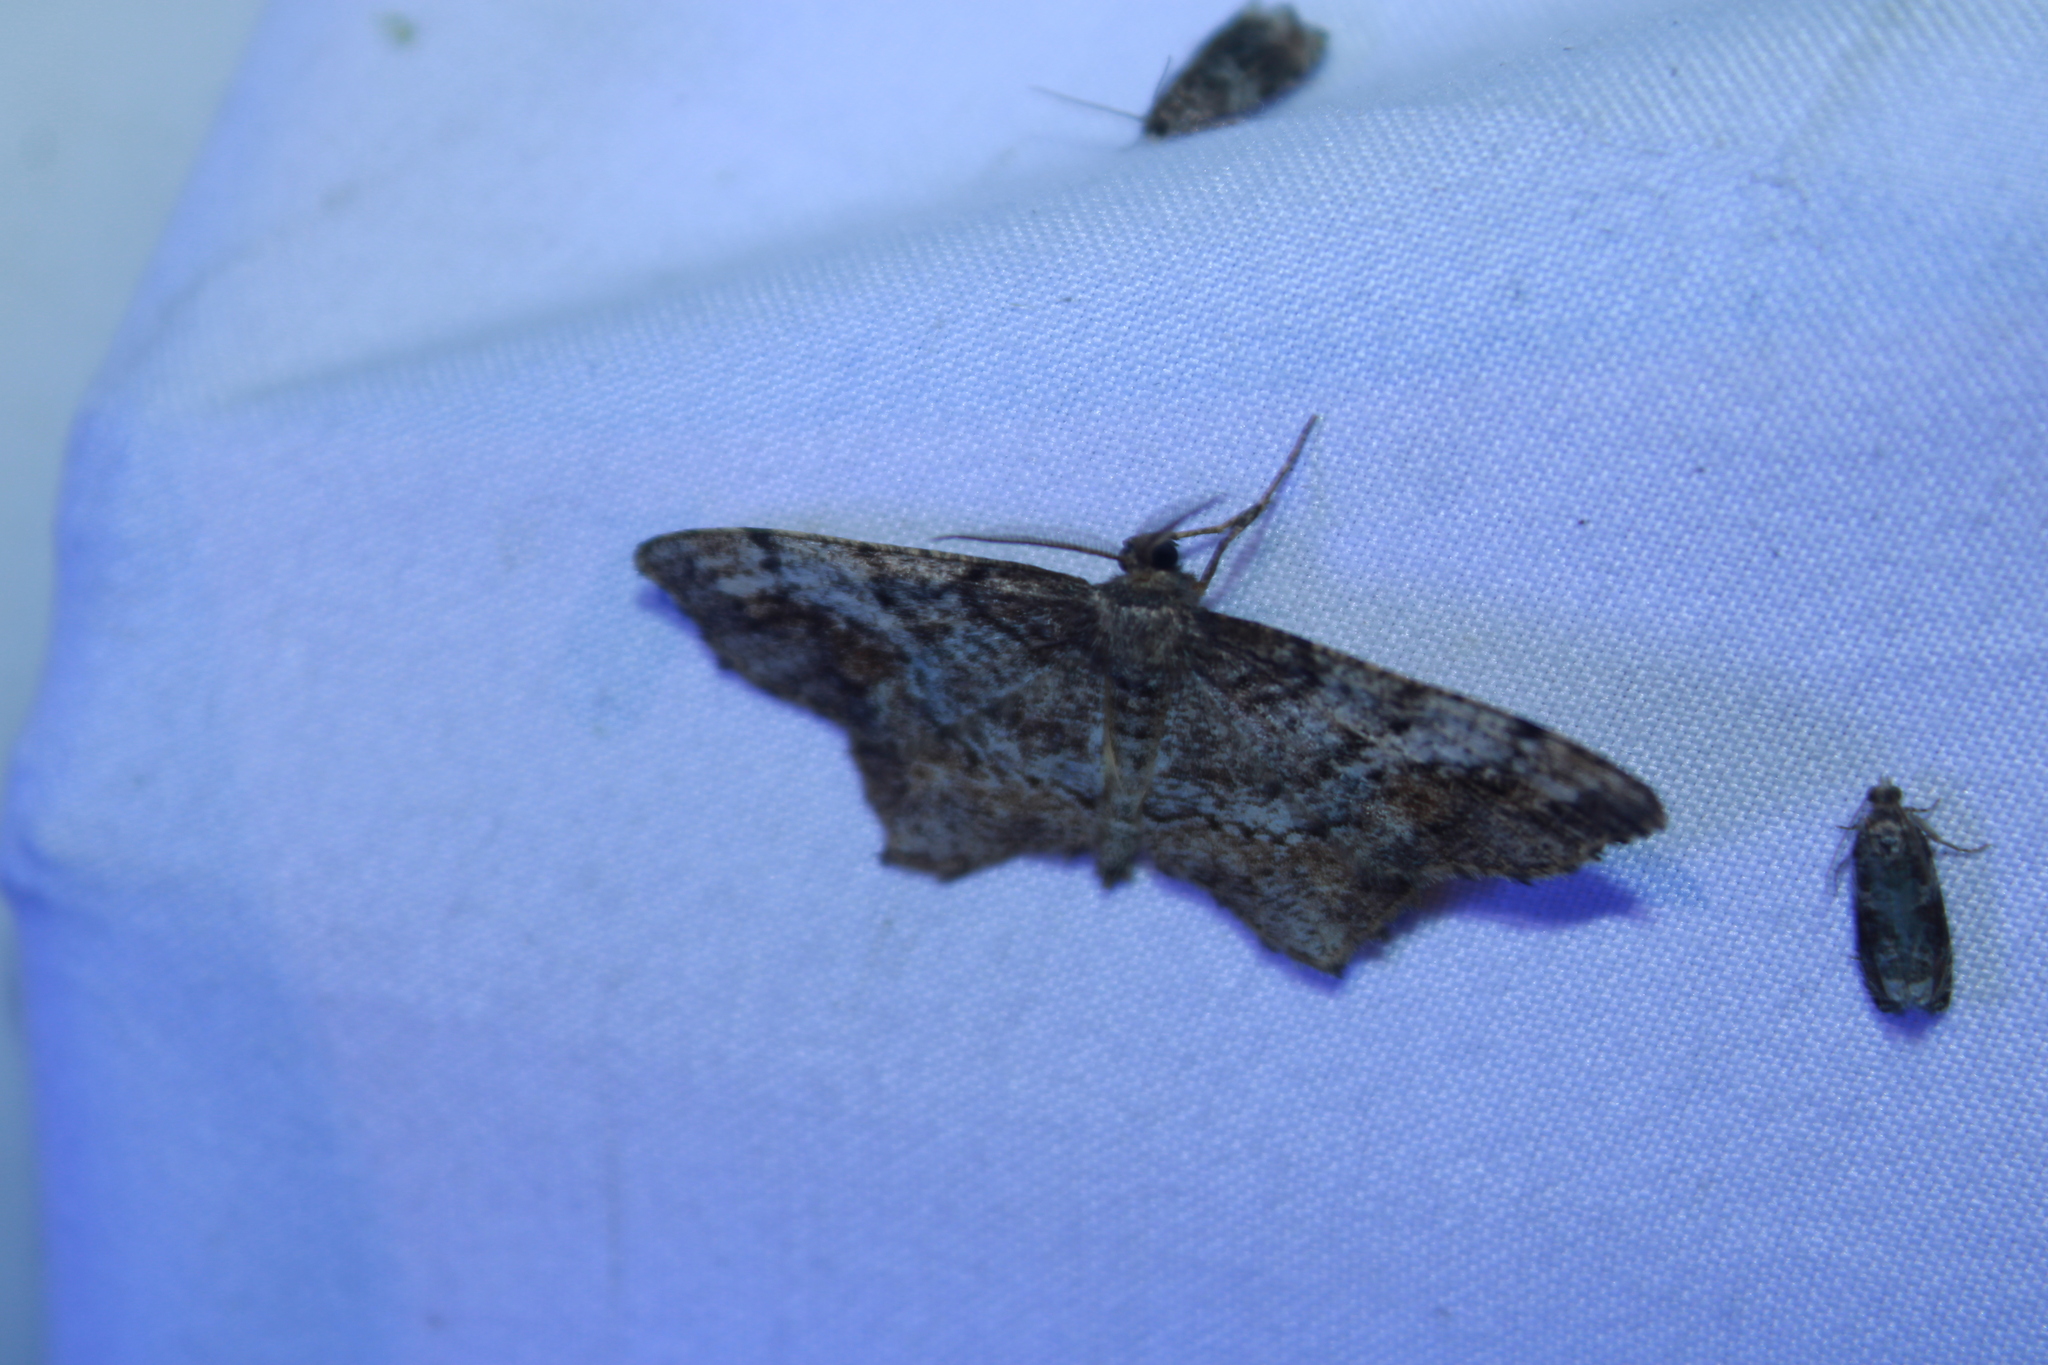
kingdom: Animalia
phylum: Arthropoda
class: Insecta
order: Lepidoptera
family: Geometridae
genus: Hypagyrtis
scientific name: Hypagyrtis unipunctata
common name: One-spotted variant
